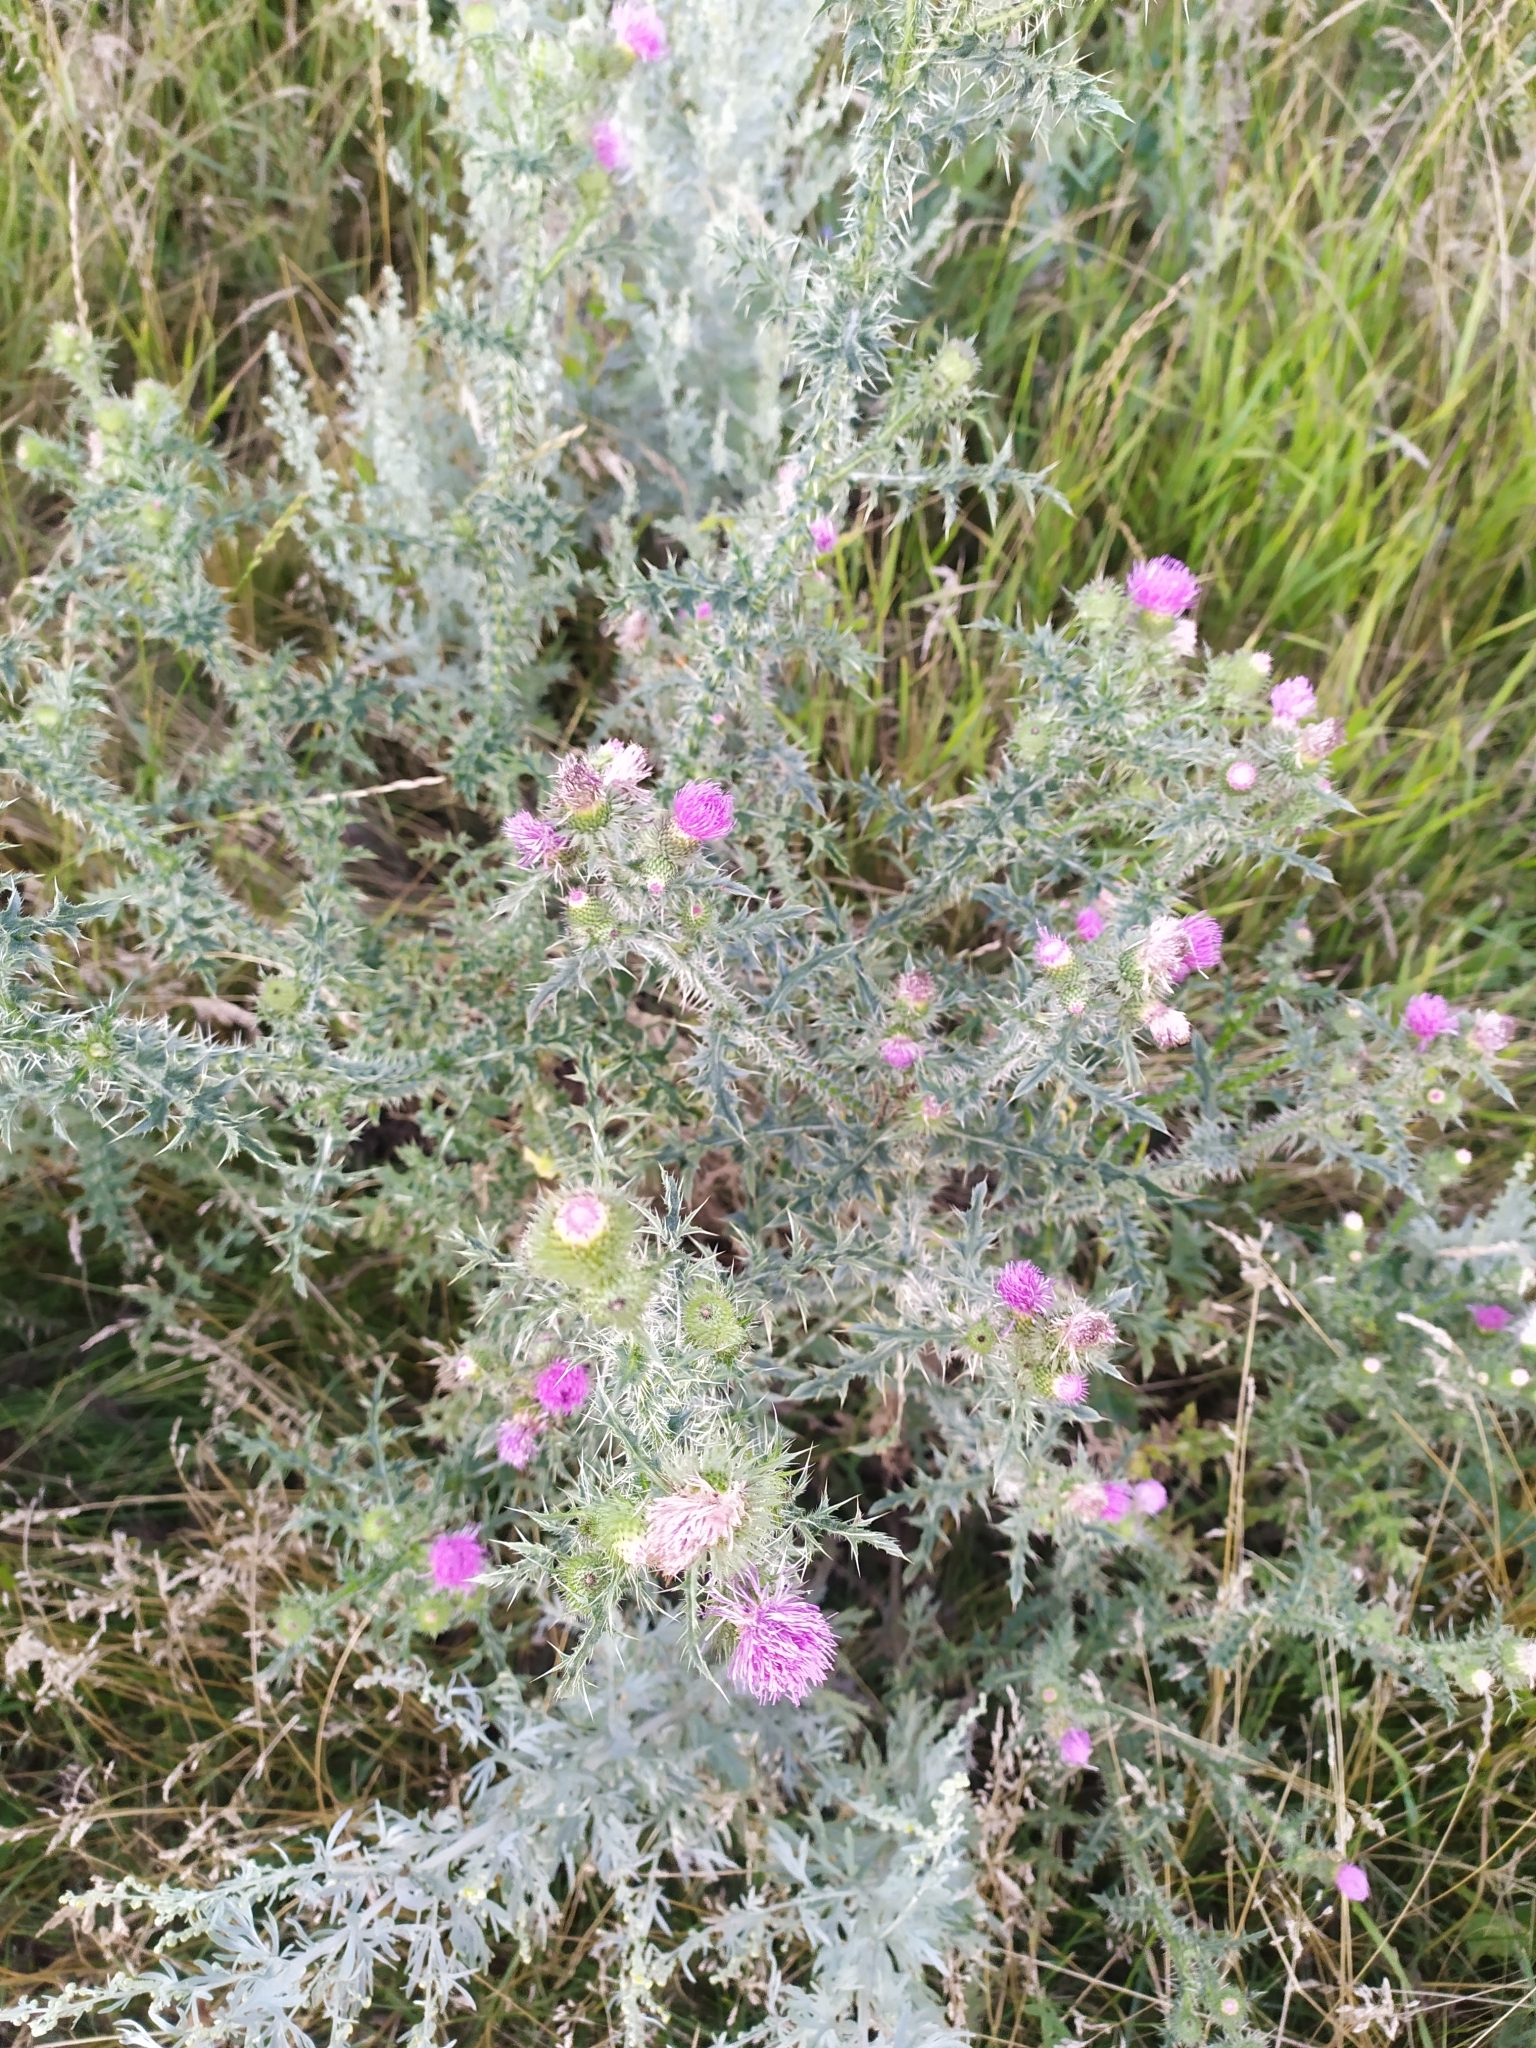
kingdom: Plantae
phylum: Tracheophyta
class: Magnoliopsida
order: Asterales
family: Asteraceae
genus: Carduus
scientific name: Carduus acanthoides
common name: Plumeless thistle
